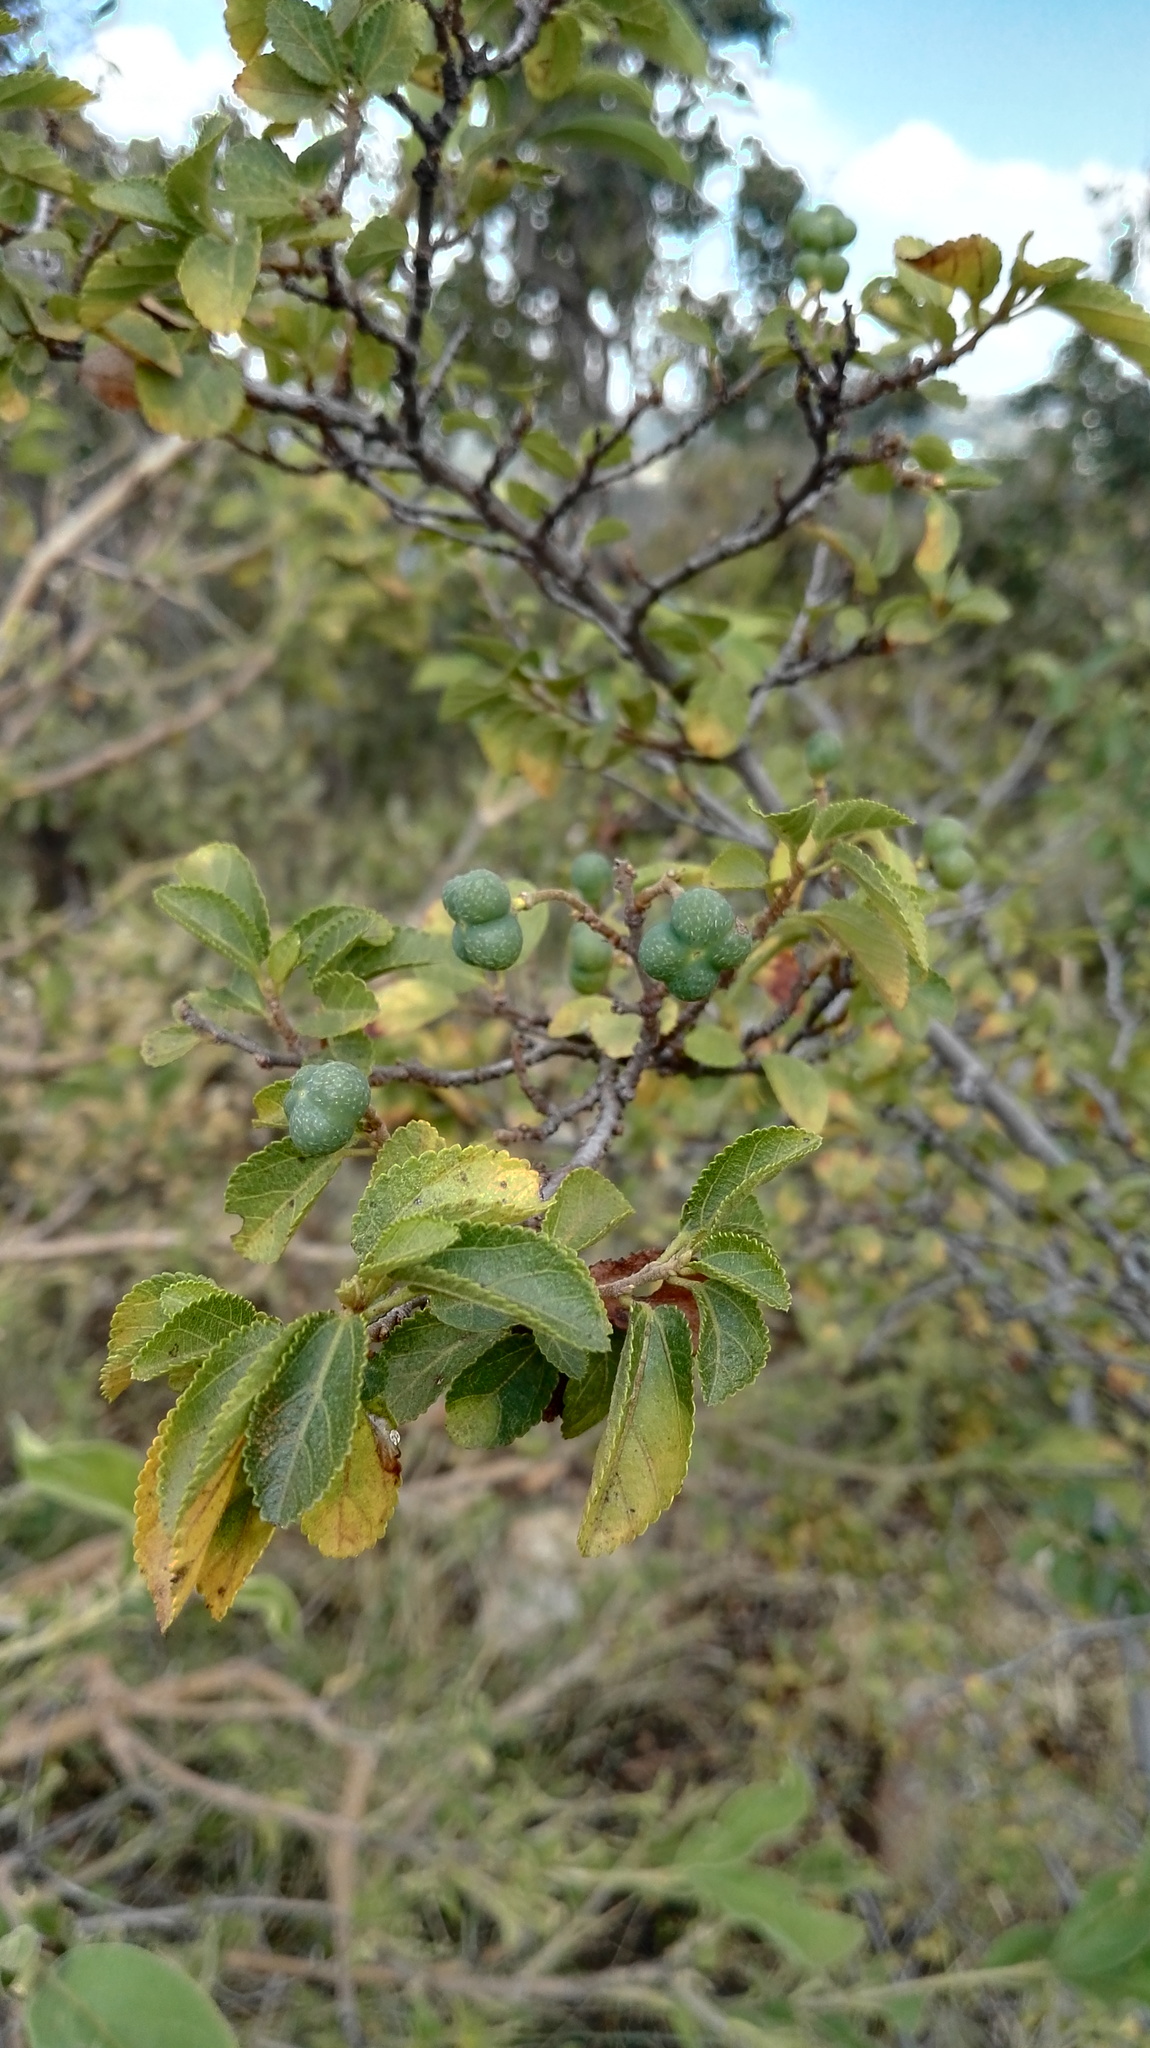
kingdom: Plantae
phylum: Tracheophyta
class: Magnoliopsida
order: Malvales
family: Malvaceae
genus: Grewia
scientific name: Grewia occidentalis
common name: Crossberry
